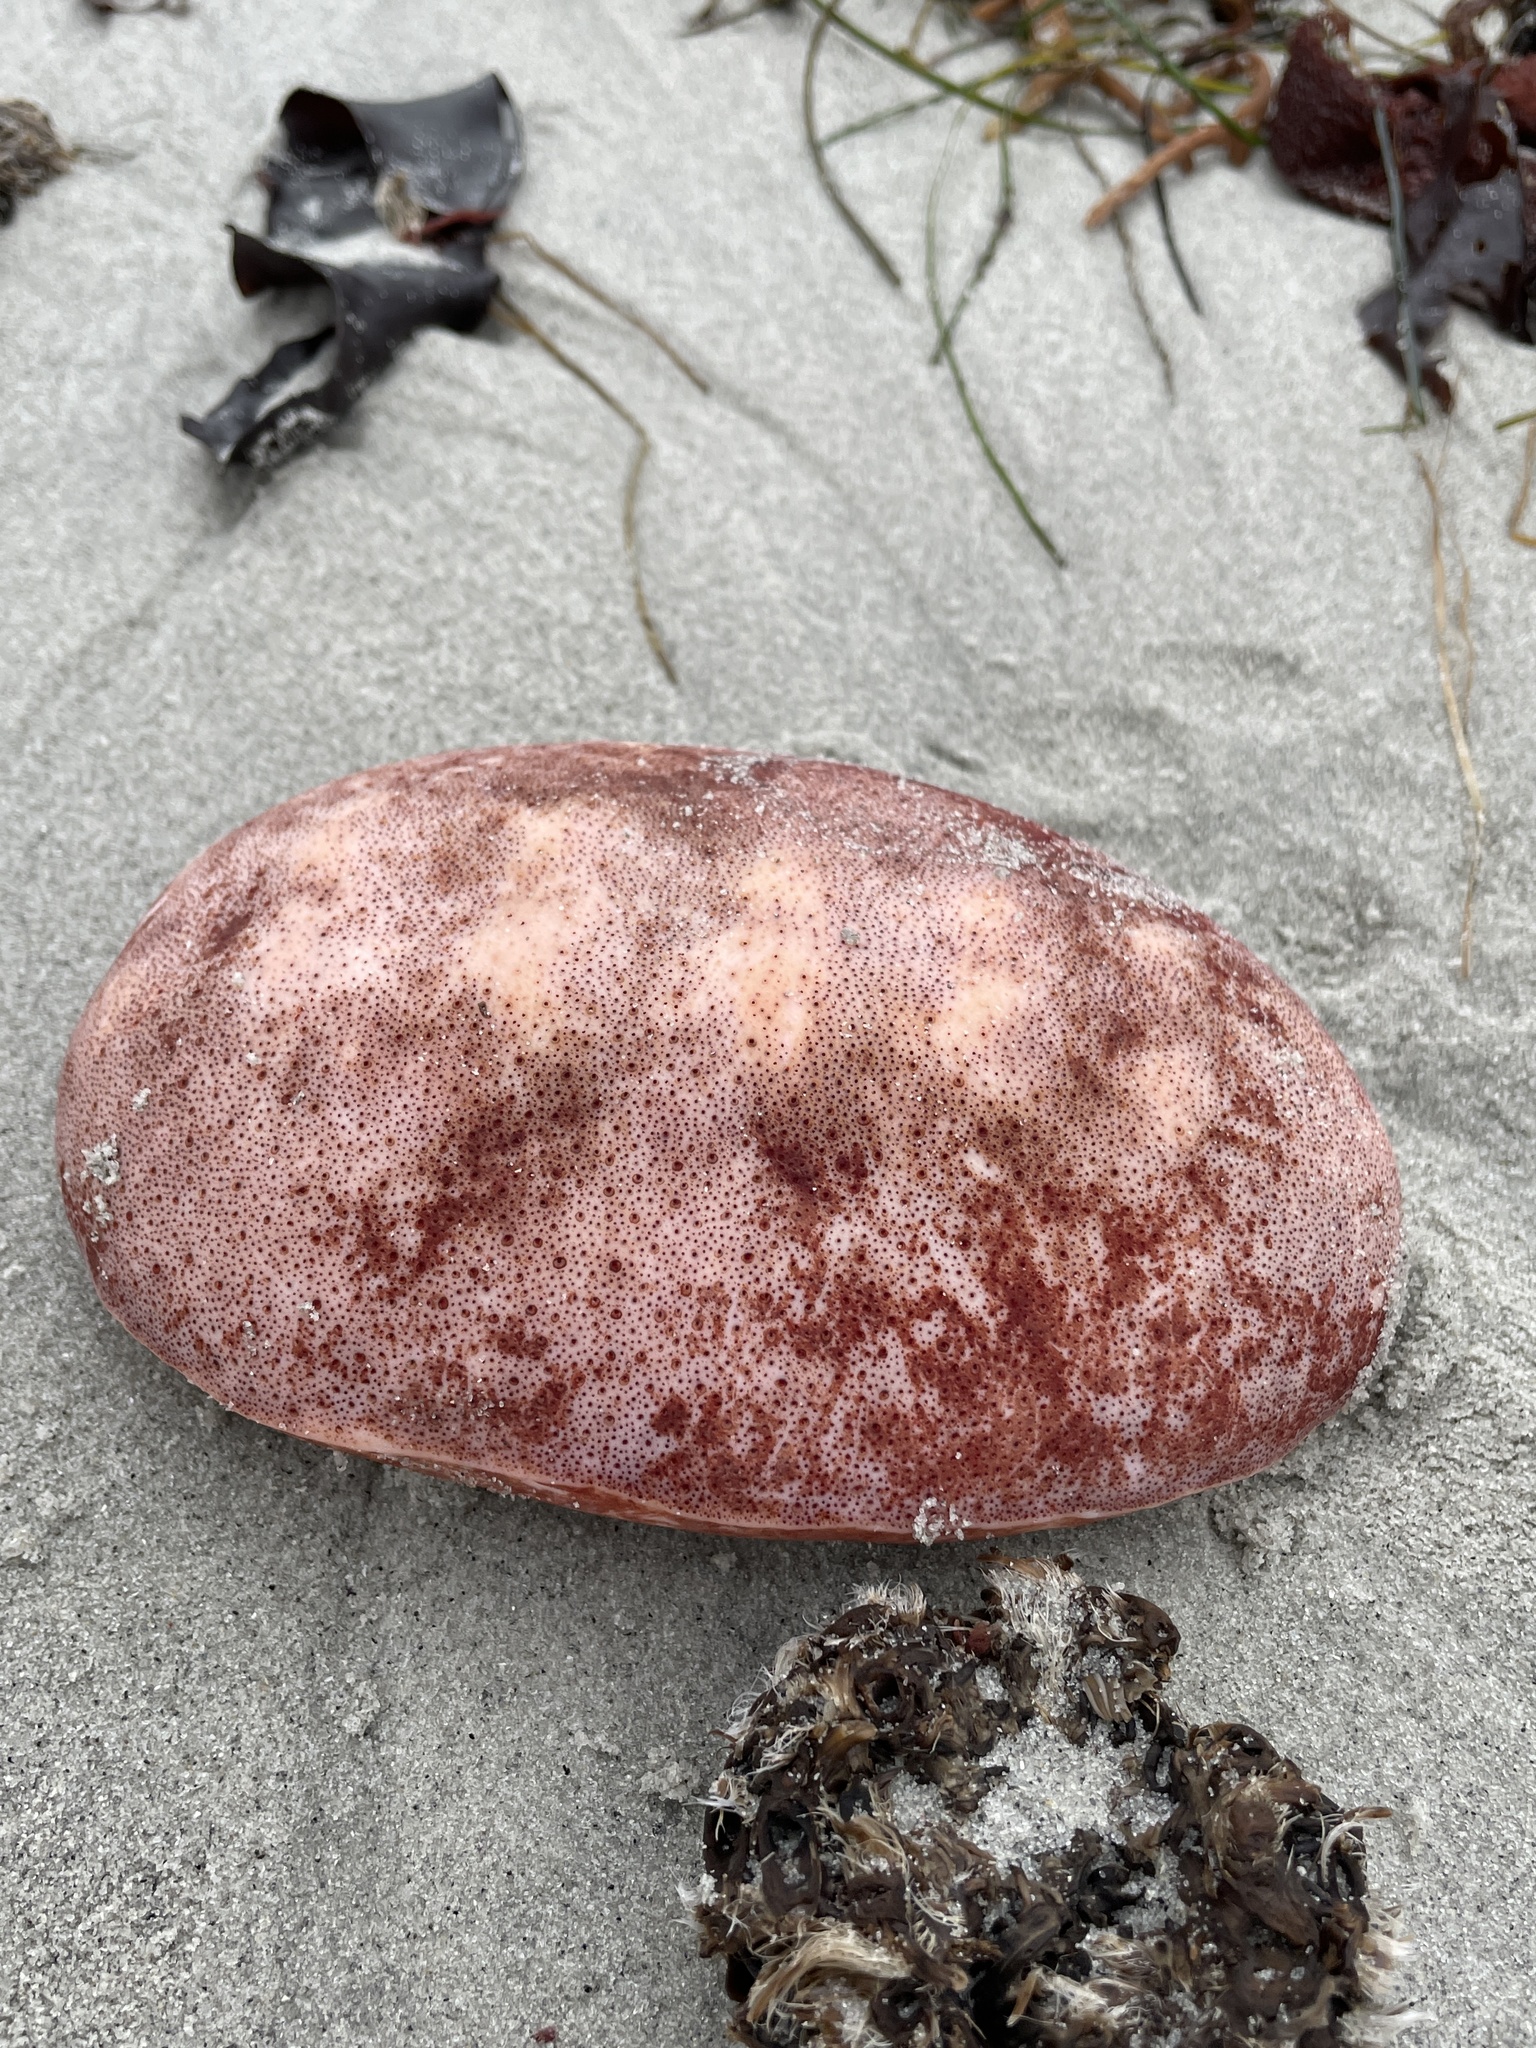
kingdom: Animalia
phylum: Mollusca
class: Polyplacophora
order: Chitonida
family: Acanthochitonidae
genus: Cryptochiton
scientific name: Cryptochiton stelleri
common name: Giant pacific chiton
